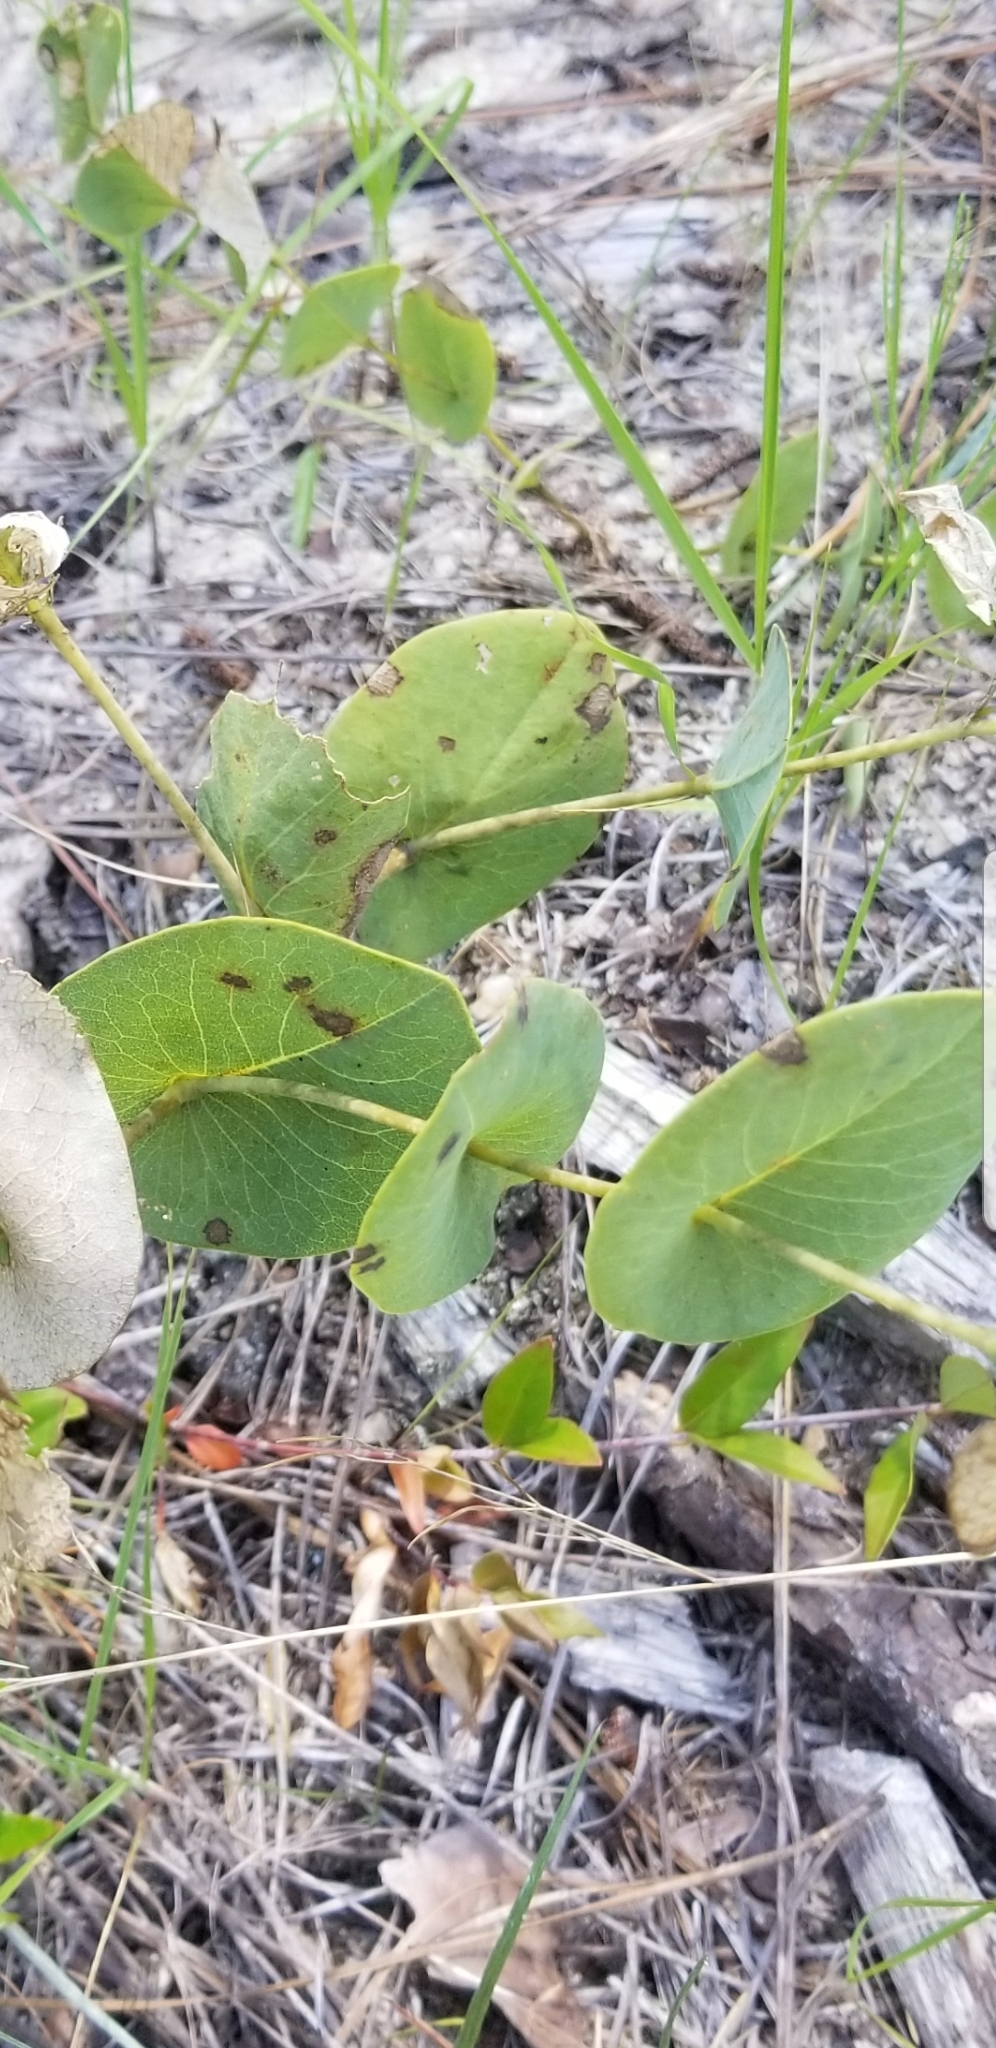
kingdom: Plantae
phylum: Tracheophyta
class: Magnoliopsida
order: Fabales
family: Fabaceae
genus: Baptisia
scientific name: Baptisia perfoliata
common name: Catbells
